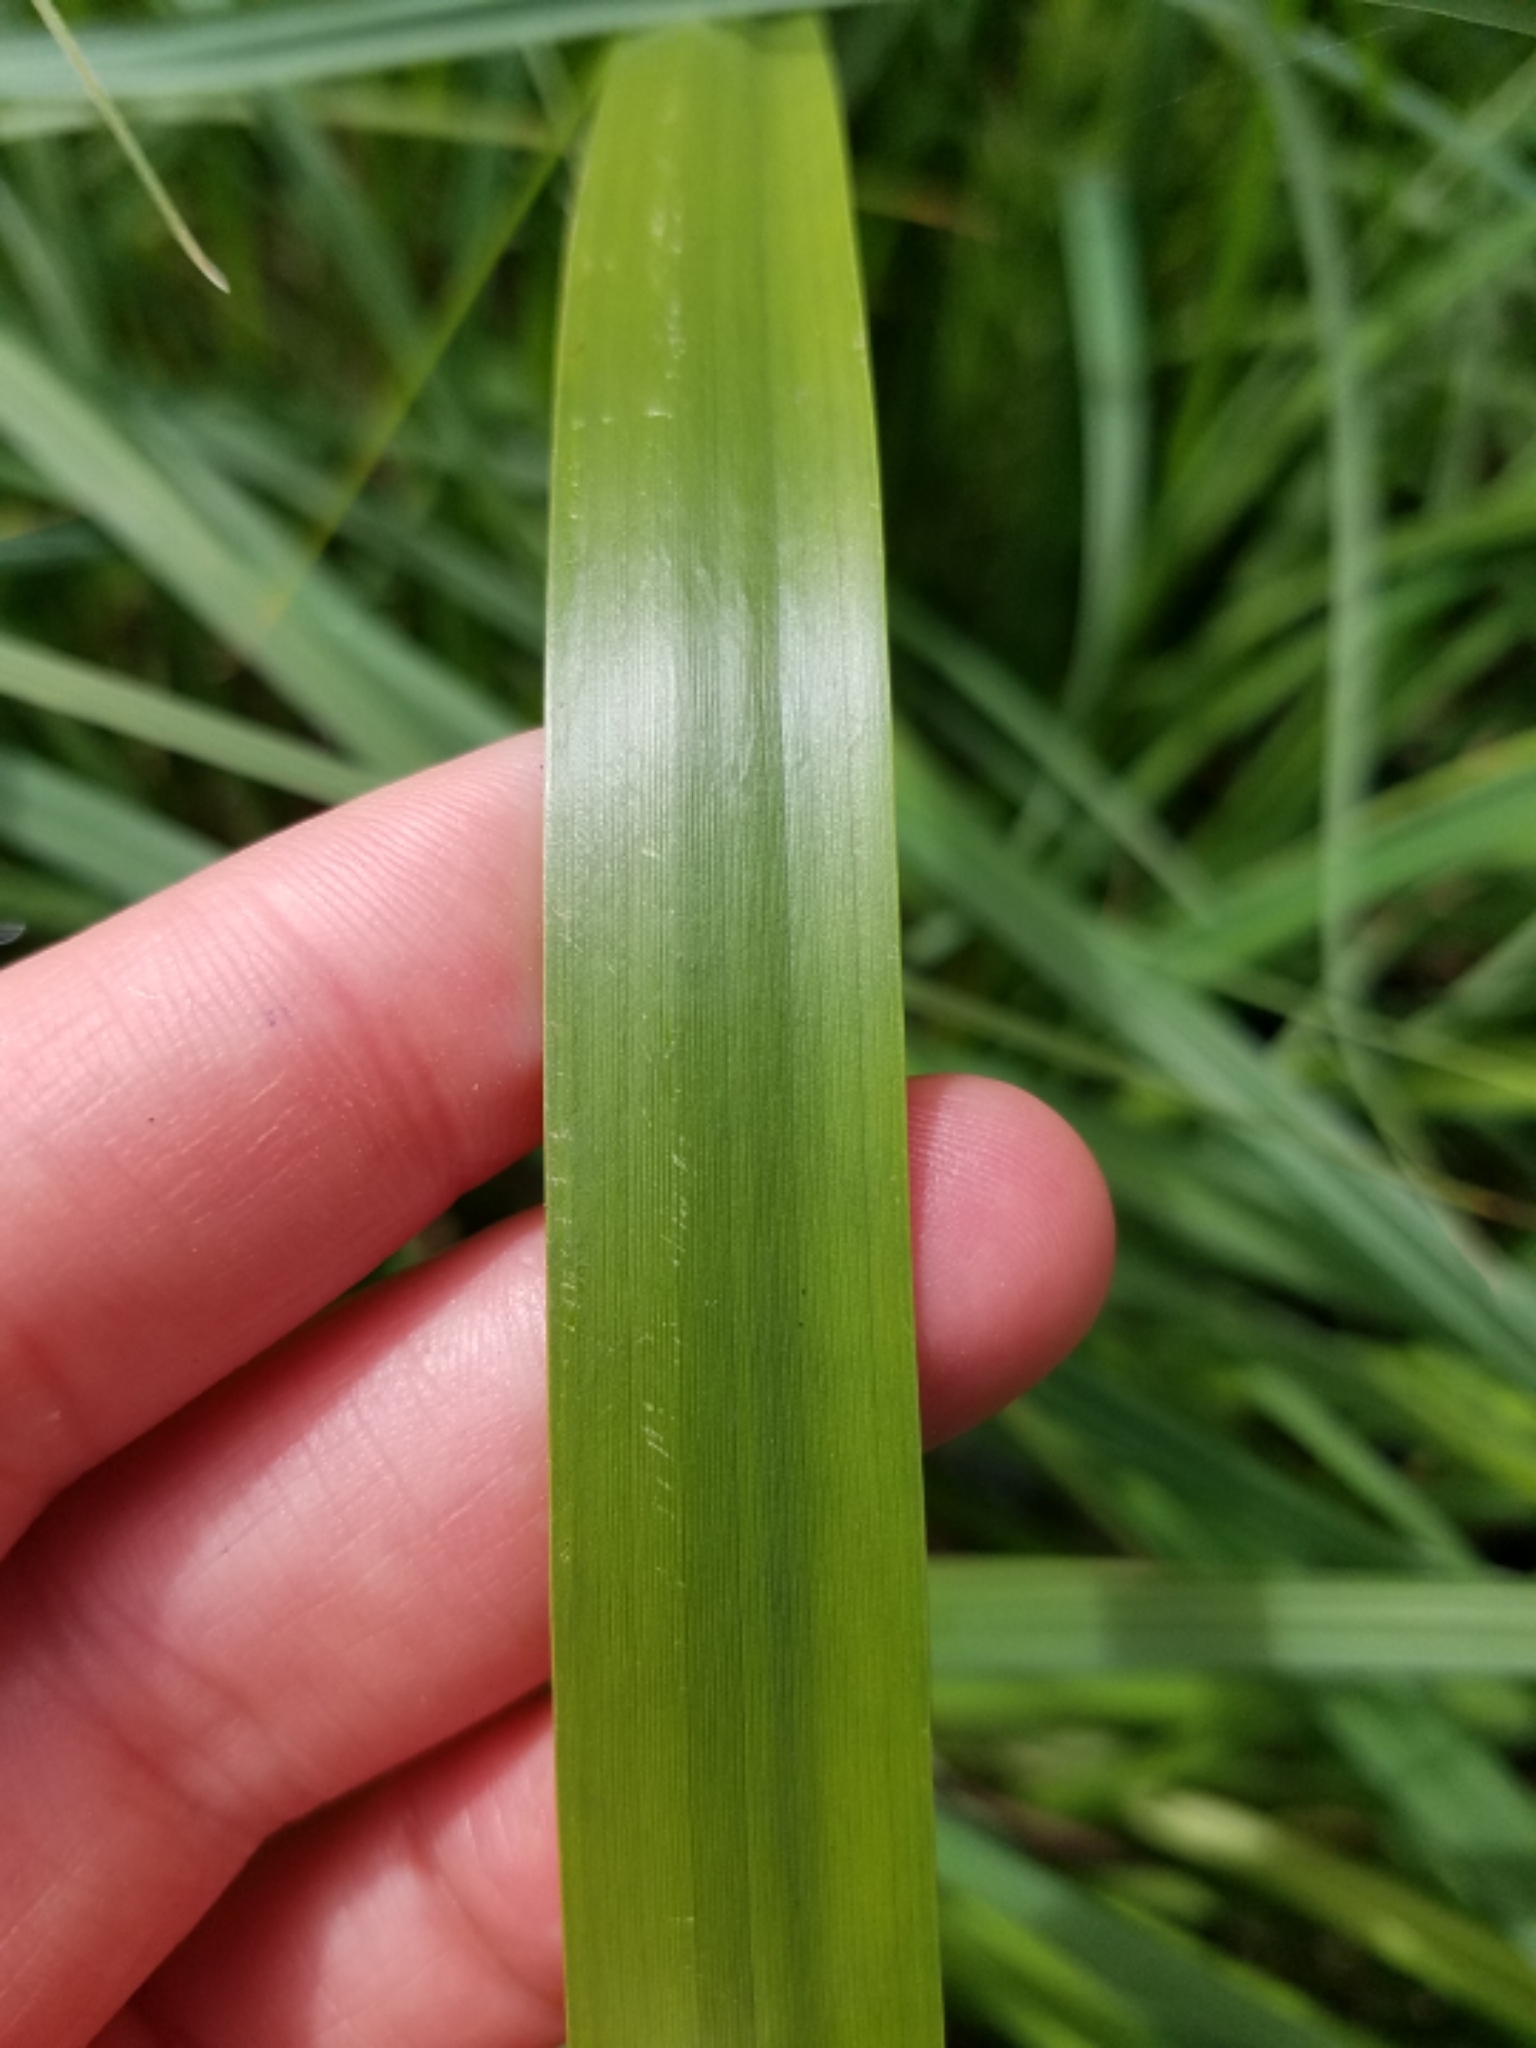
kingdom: Plantae
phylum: Tracheophyta
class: Liliopsida
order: Acorales
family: Acoraceae
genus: Acorus
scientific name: Acorus calamus
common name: Sweet-flag
